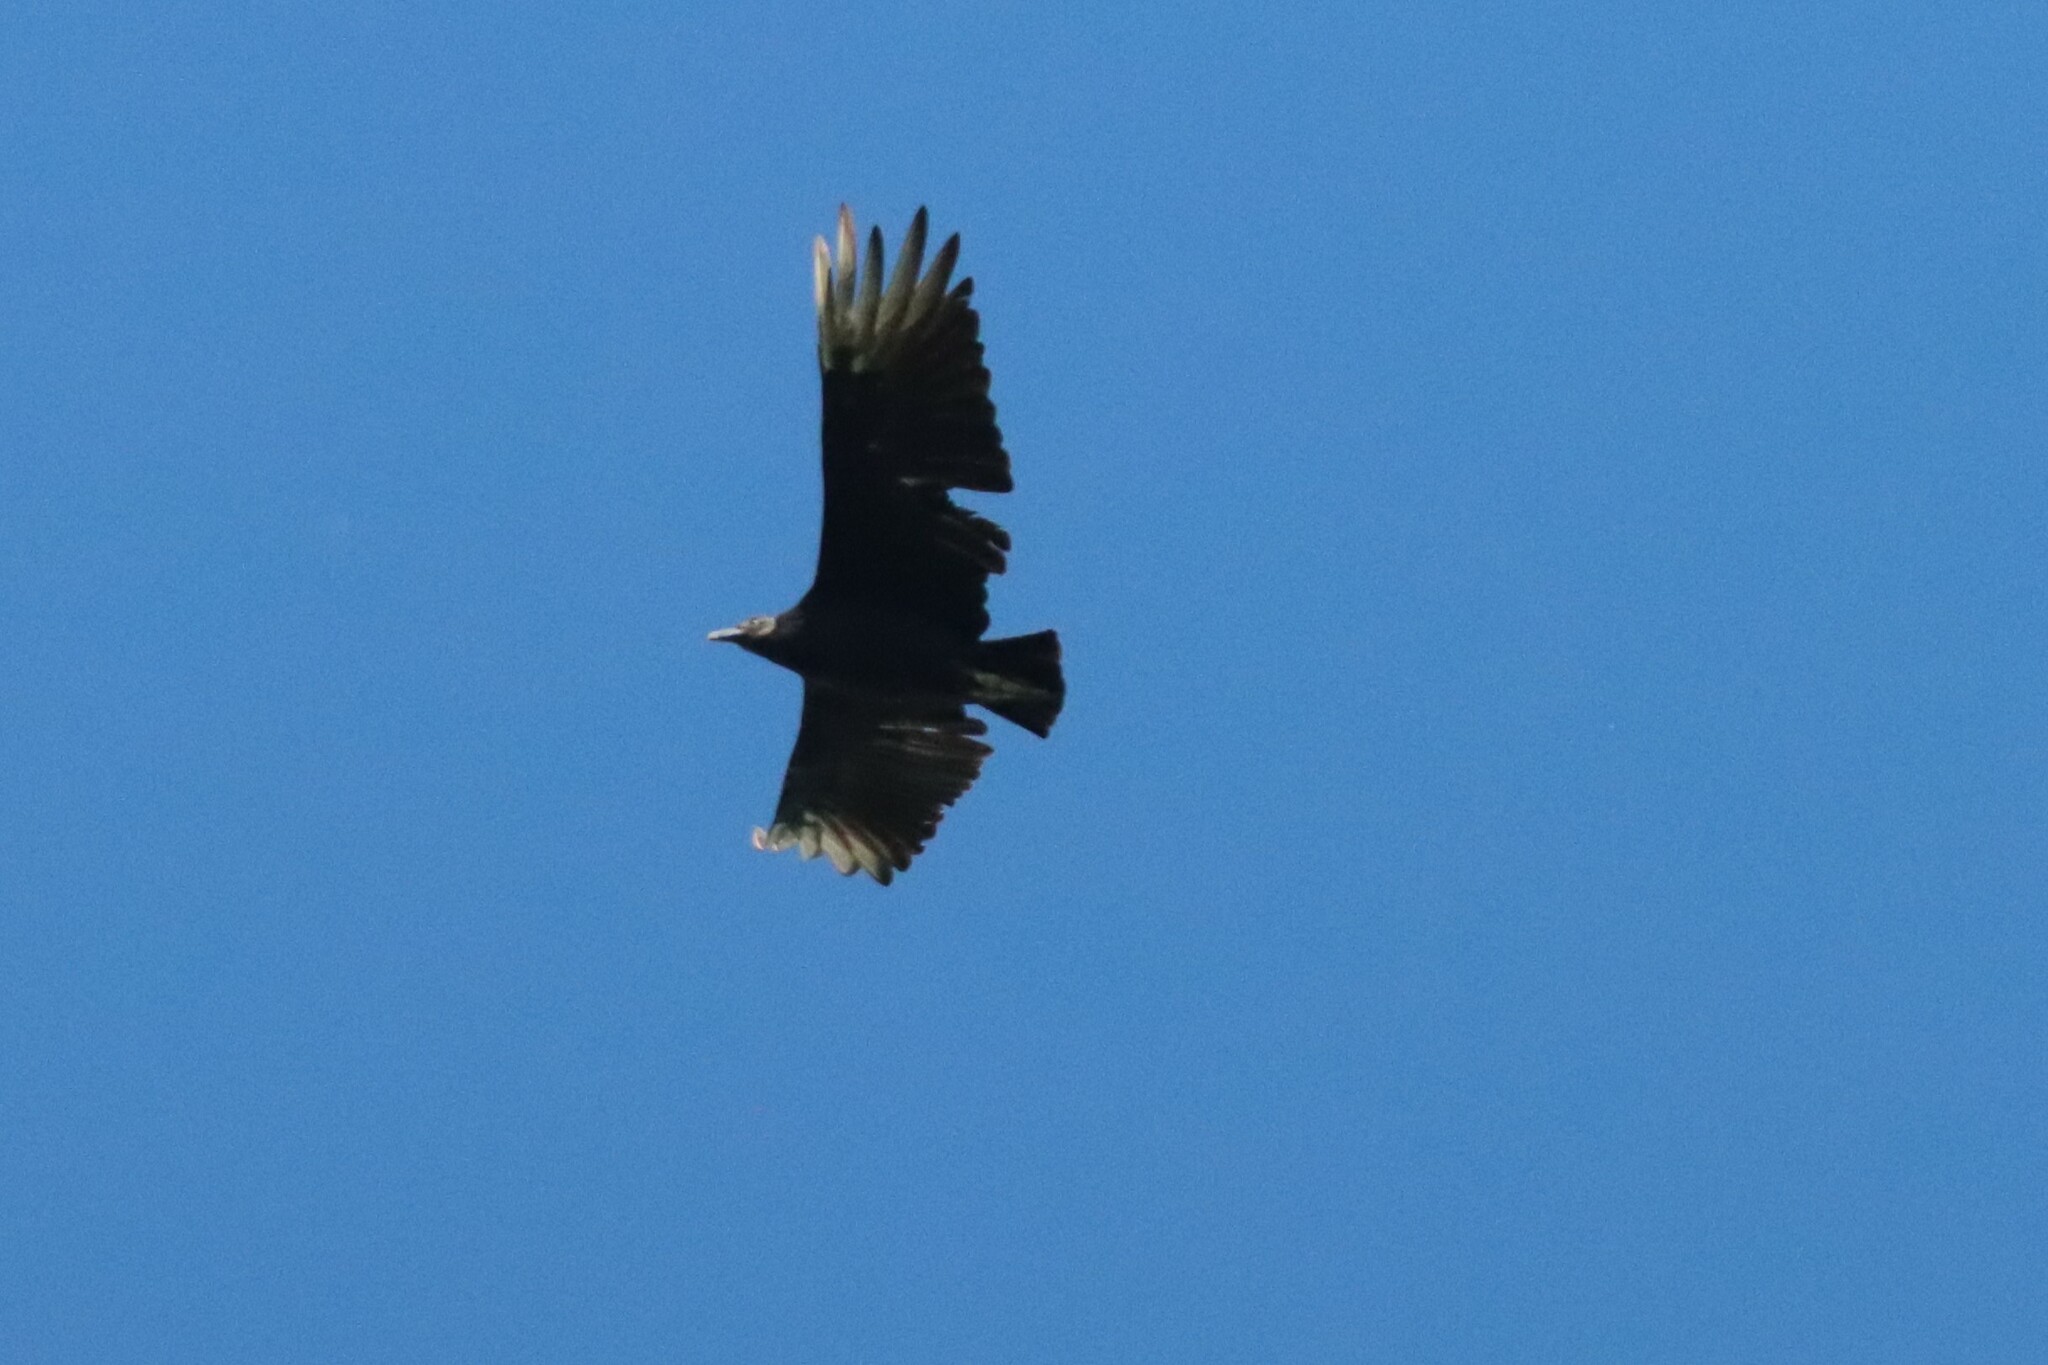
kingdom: Animalia
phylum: Chordata
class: Aves
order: Accipitriformes
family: Cathartidae
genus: Coragyps
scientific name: Coragyps atratus
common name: Black vulture
